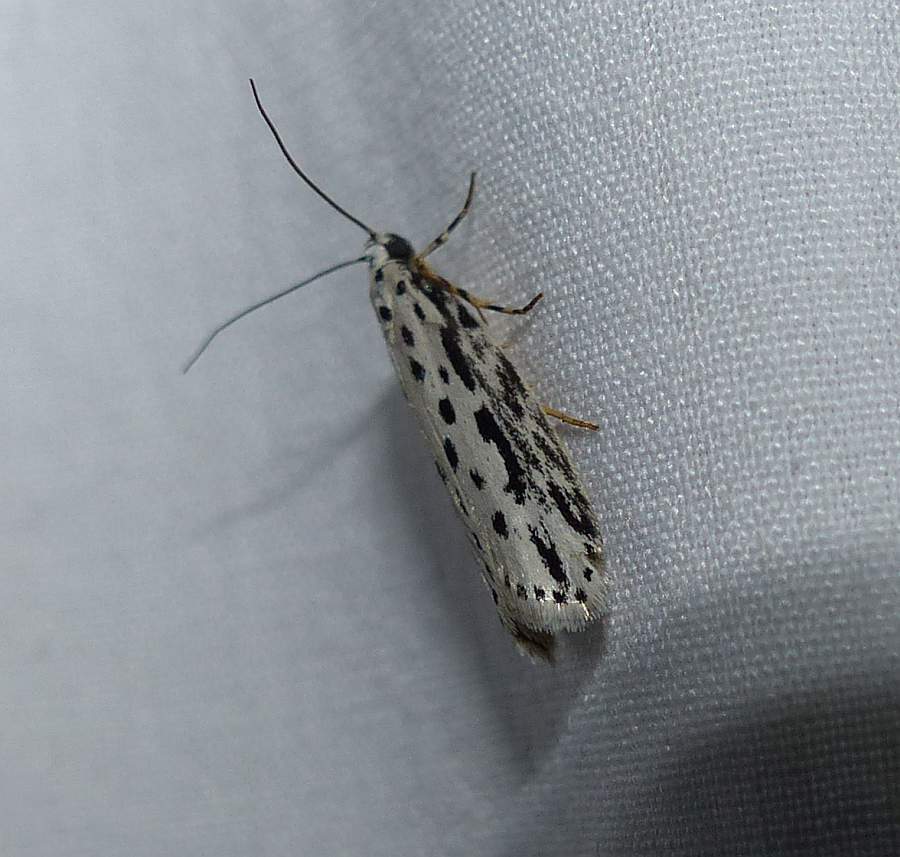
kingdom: Animalia
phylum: Arthropoda
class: Insecta
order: Lepidoptera
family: Ethmiidae
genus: Ethmia
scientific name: Ethmia zelleriella
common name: Zeller's ethmia
